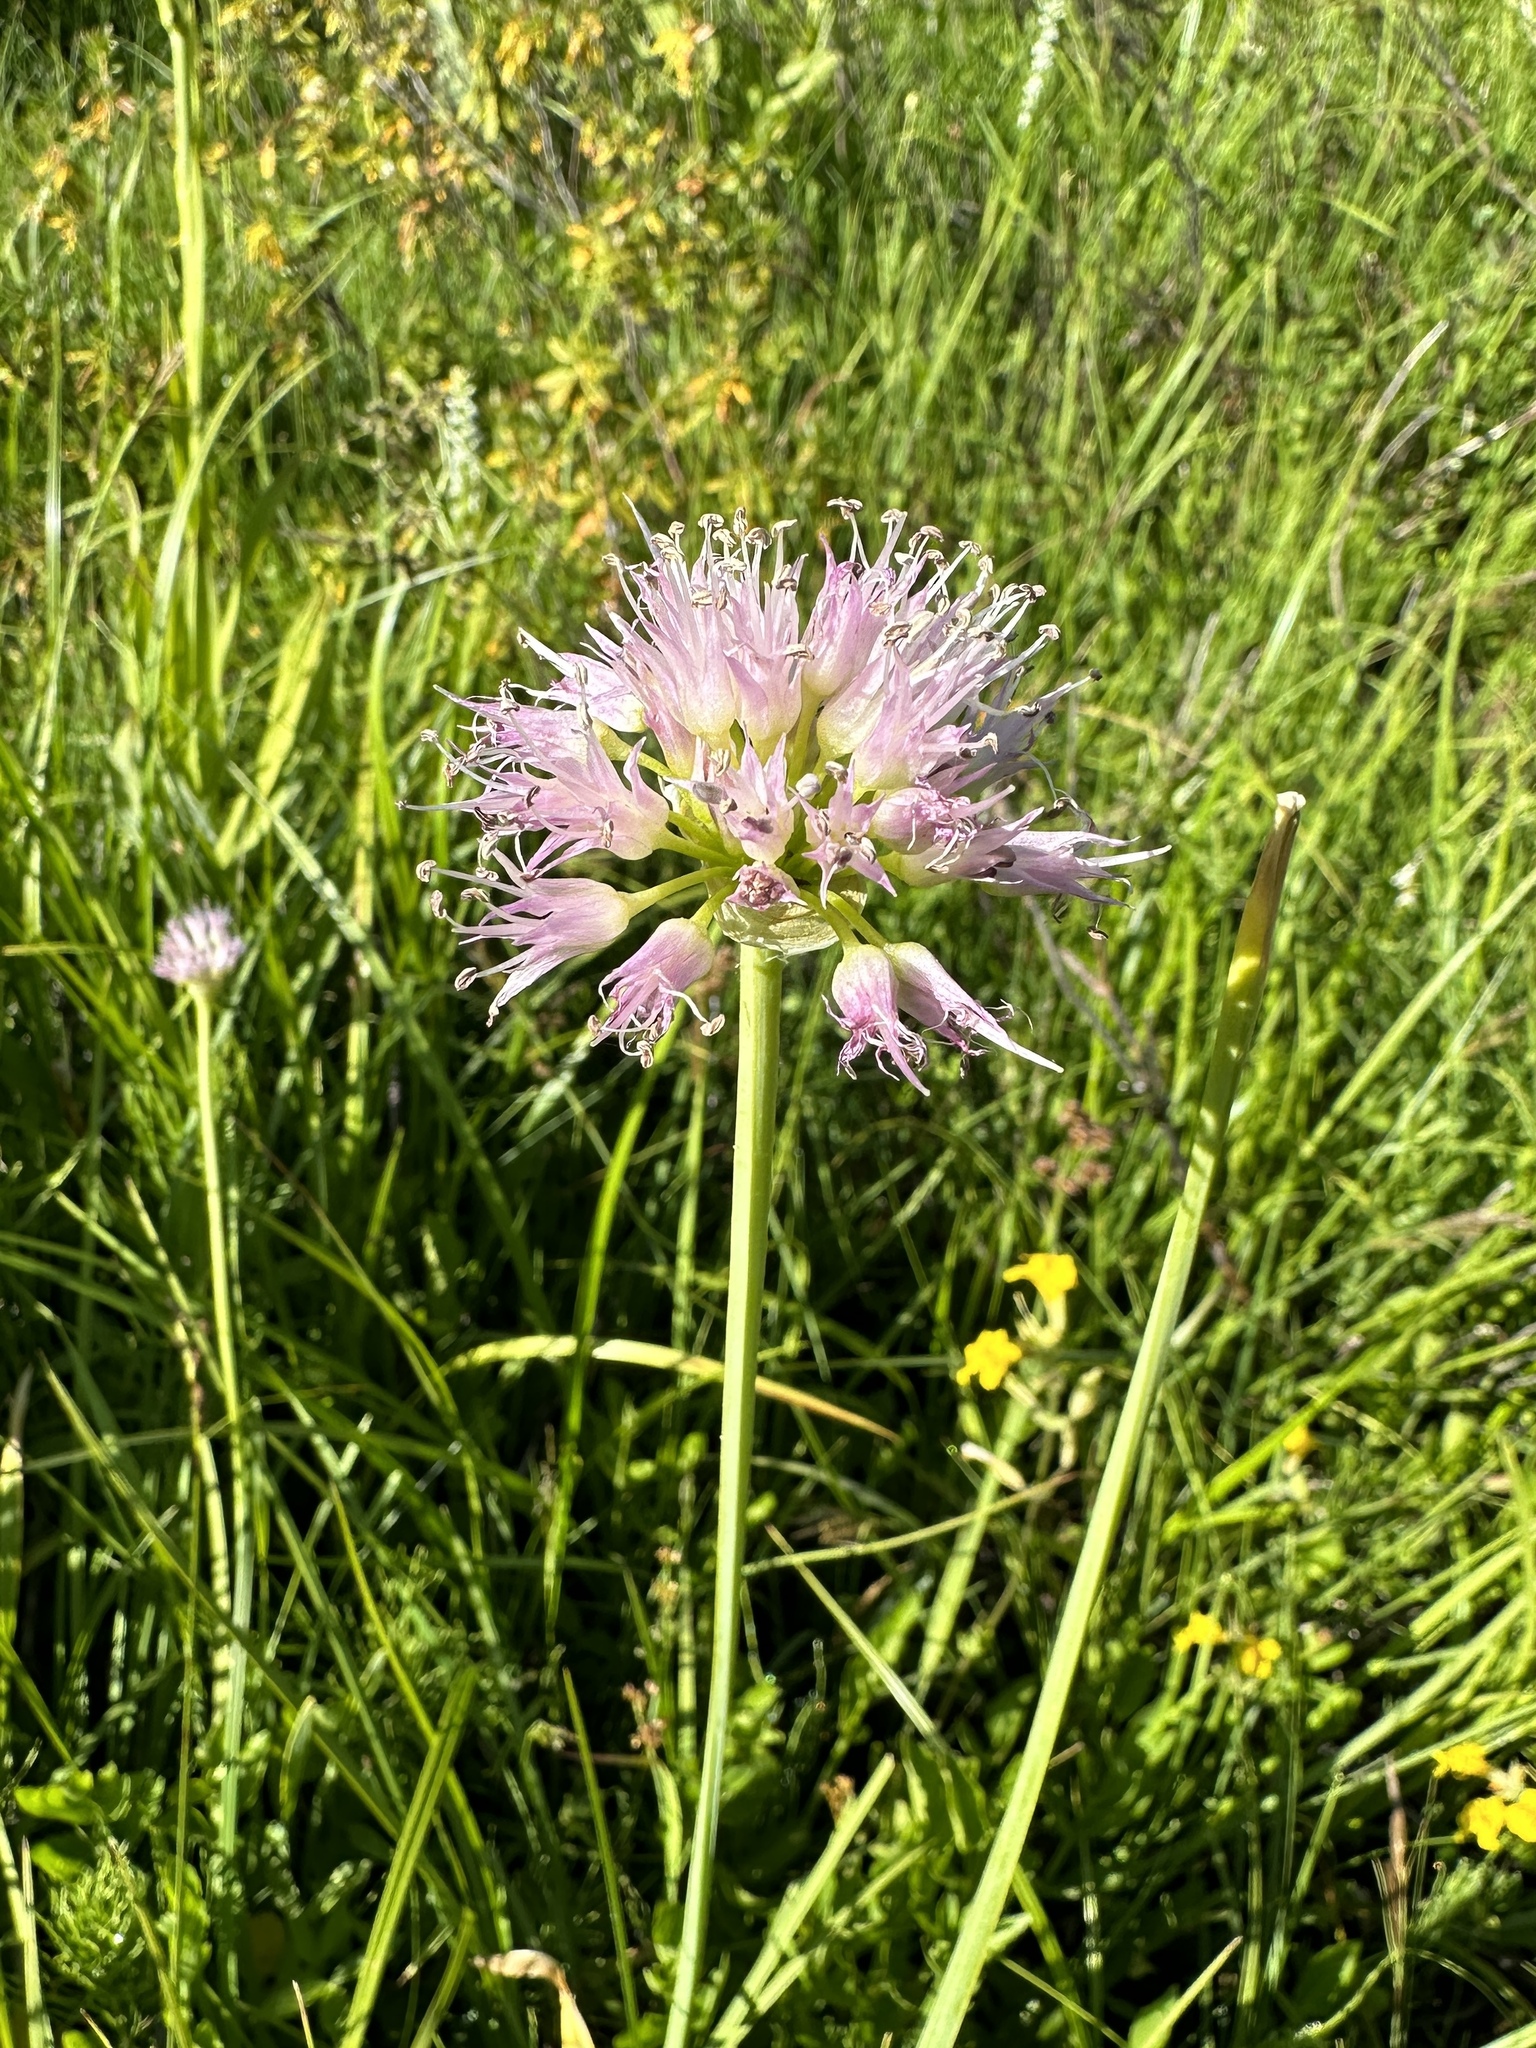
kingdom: Plantae
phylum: Tracheophyta
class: Liliopsida
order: Asparagales
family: Amaryllidaceae
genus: Allium
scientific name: Allium validum
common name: Pacific mountain onion
